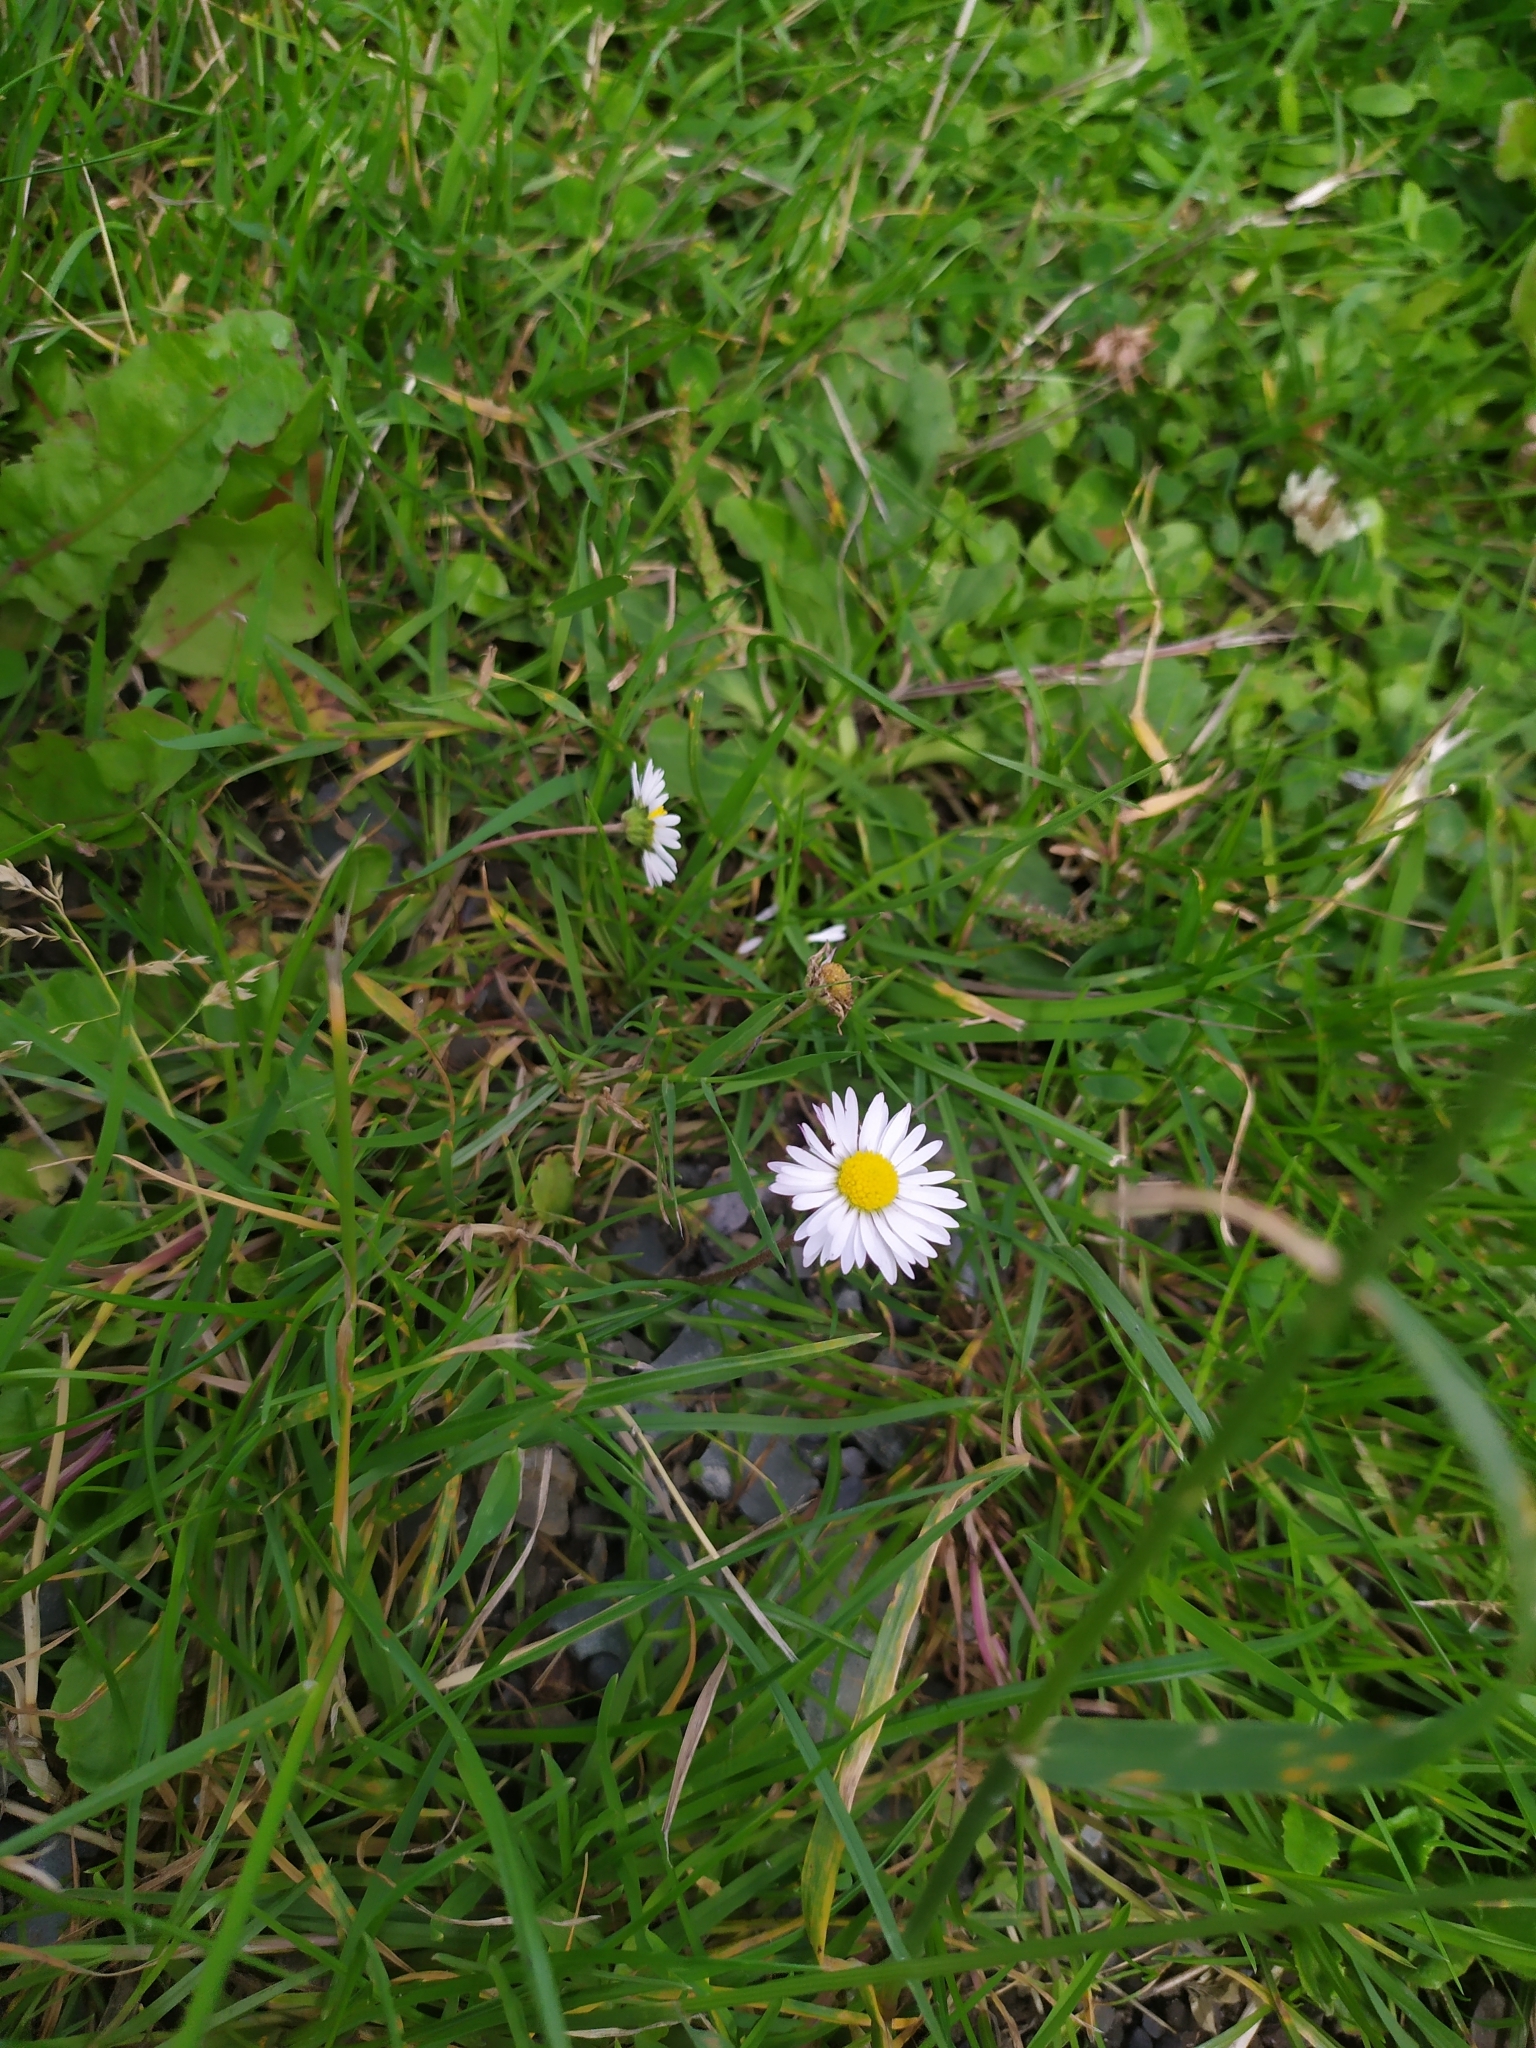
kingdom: Plantae
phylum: Tracheophyta
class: Magnoliopsida
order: Asterales
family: Asteraceae
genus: Bellis
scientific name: Bellis perennis
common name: Lawndaisy
